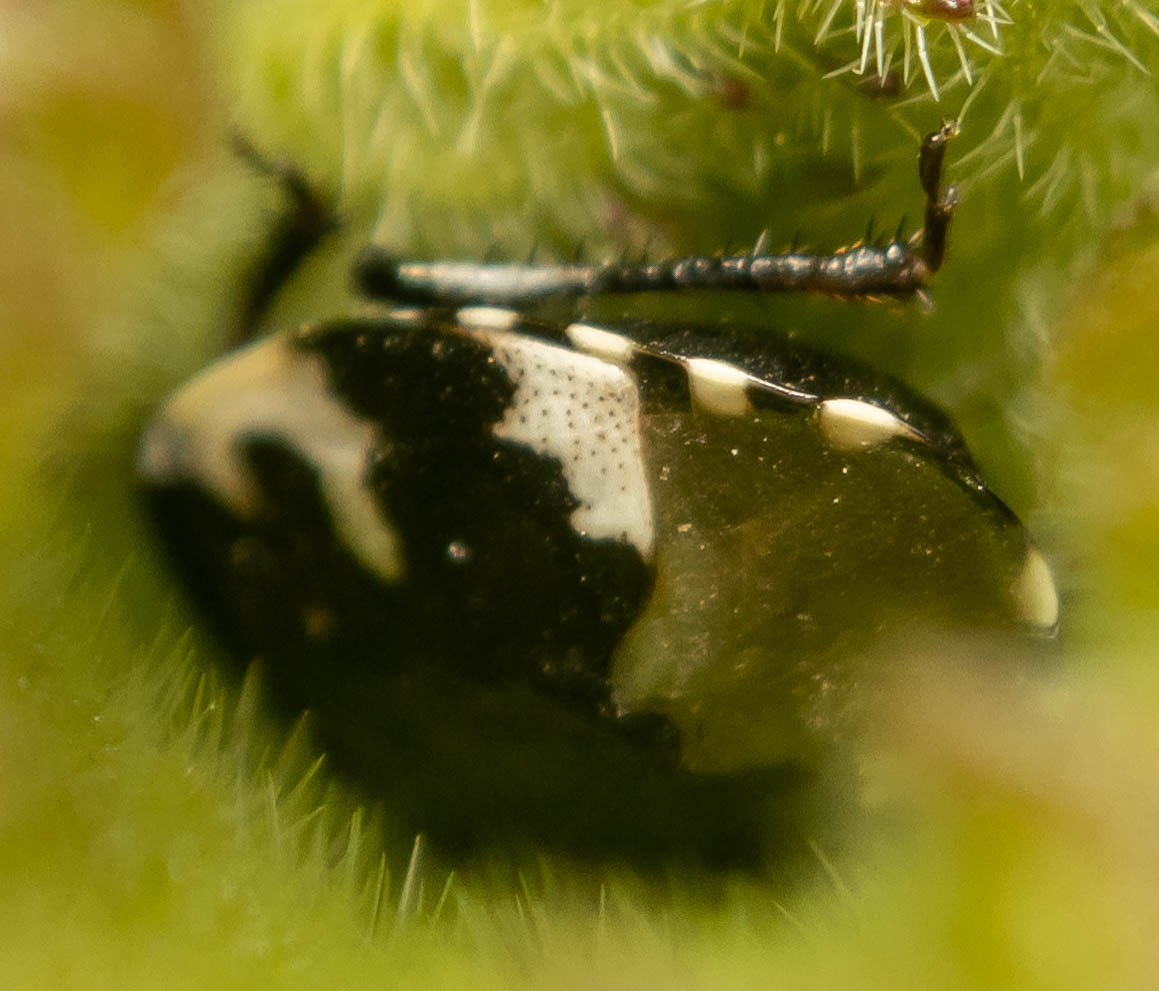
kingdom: Animalia
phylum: Arthropoda
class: Insecta
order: Hemiptera
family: Cydnidae
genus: Tritomegas
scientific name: Tritomegas bicolor
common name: Pied shieldbug
